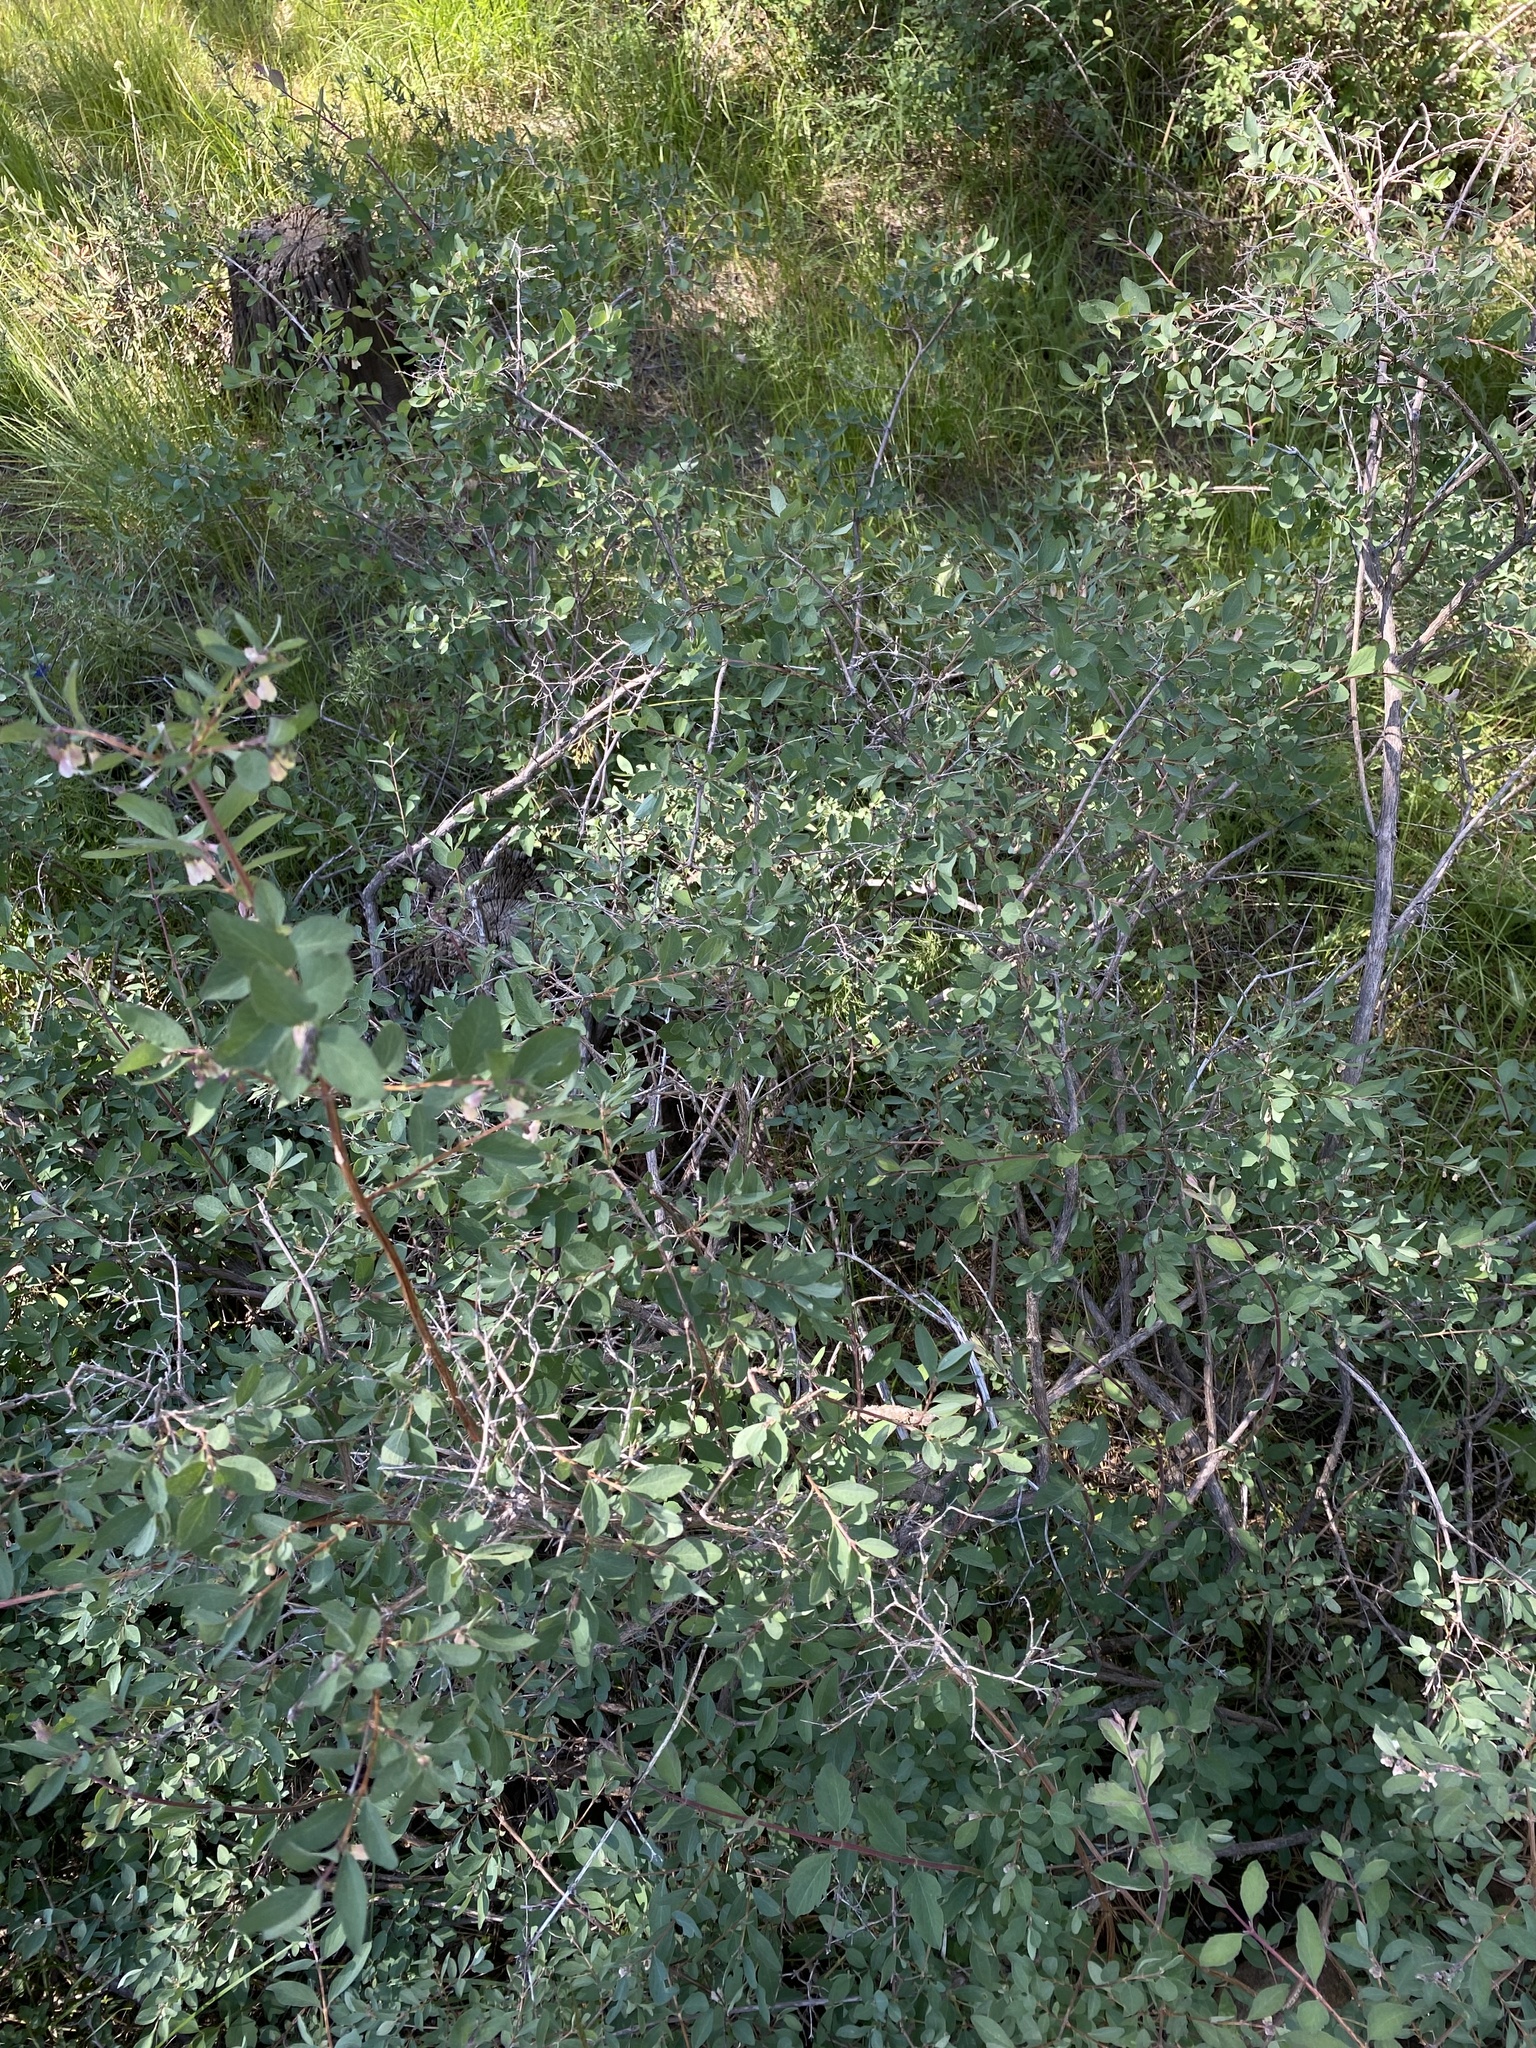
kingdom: Plantae
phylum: Tracheophyta
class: Magnoliopsida
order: Dipsacales
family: Caprifoliaceae
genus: Symphoricarpos
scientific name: Symphoricarpos rotundifolius
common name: Round-leaved snowberry
